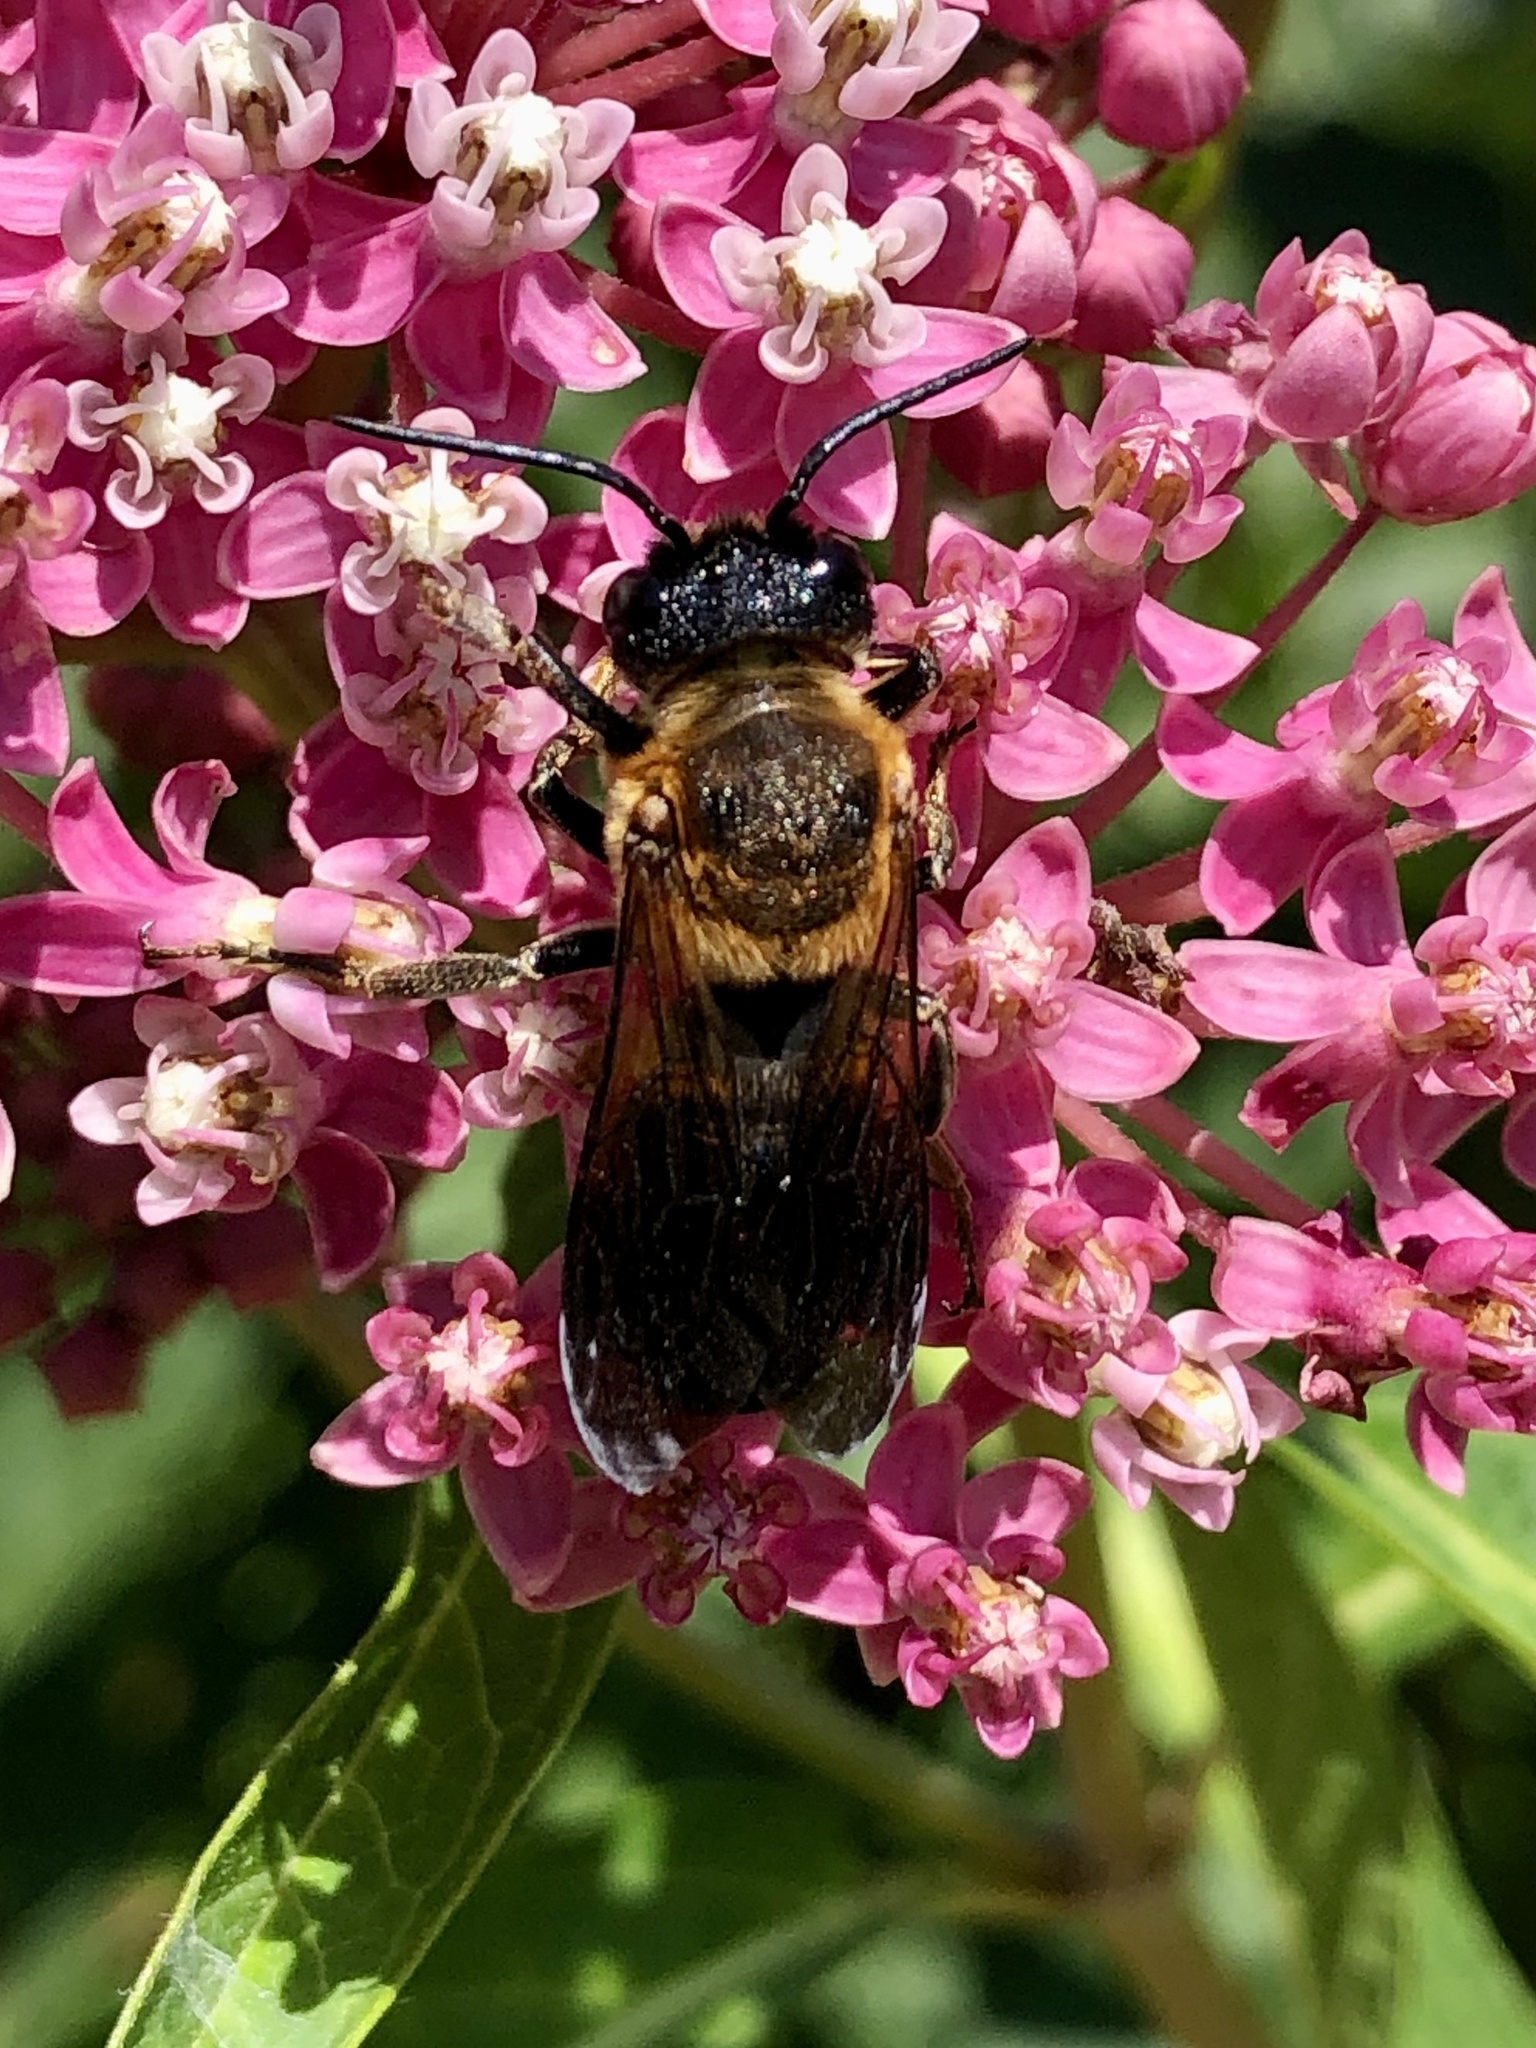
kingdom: Animalia
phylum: Arthropoda
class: Insecta
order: Hymenoptera
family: Megachilidae
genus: Megachile
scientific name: Megachile sculpturalis
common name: Sculptured resin bee
